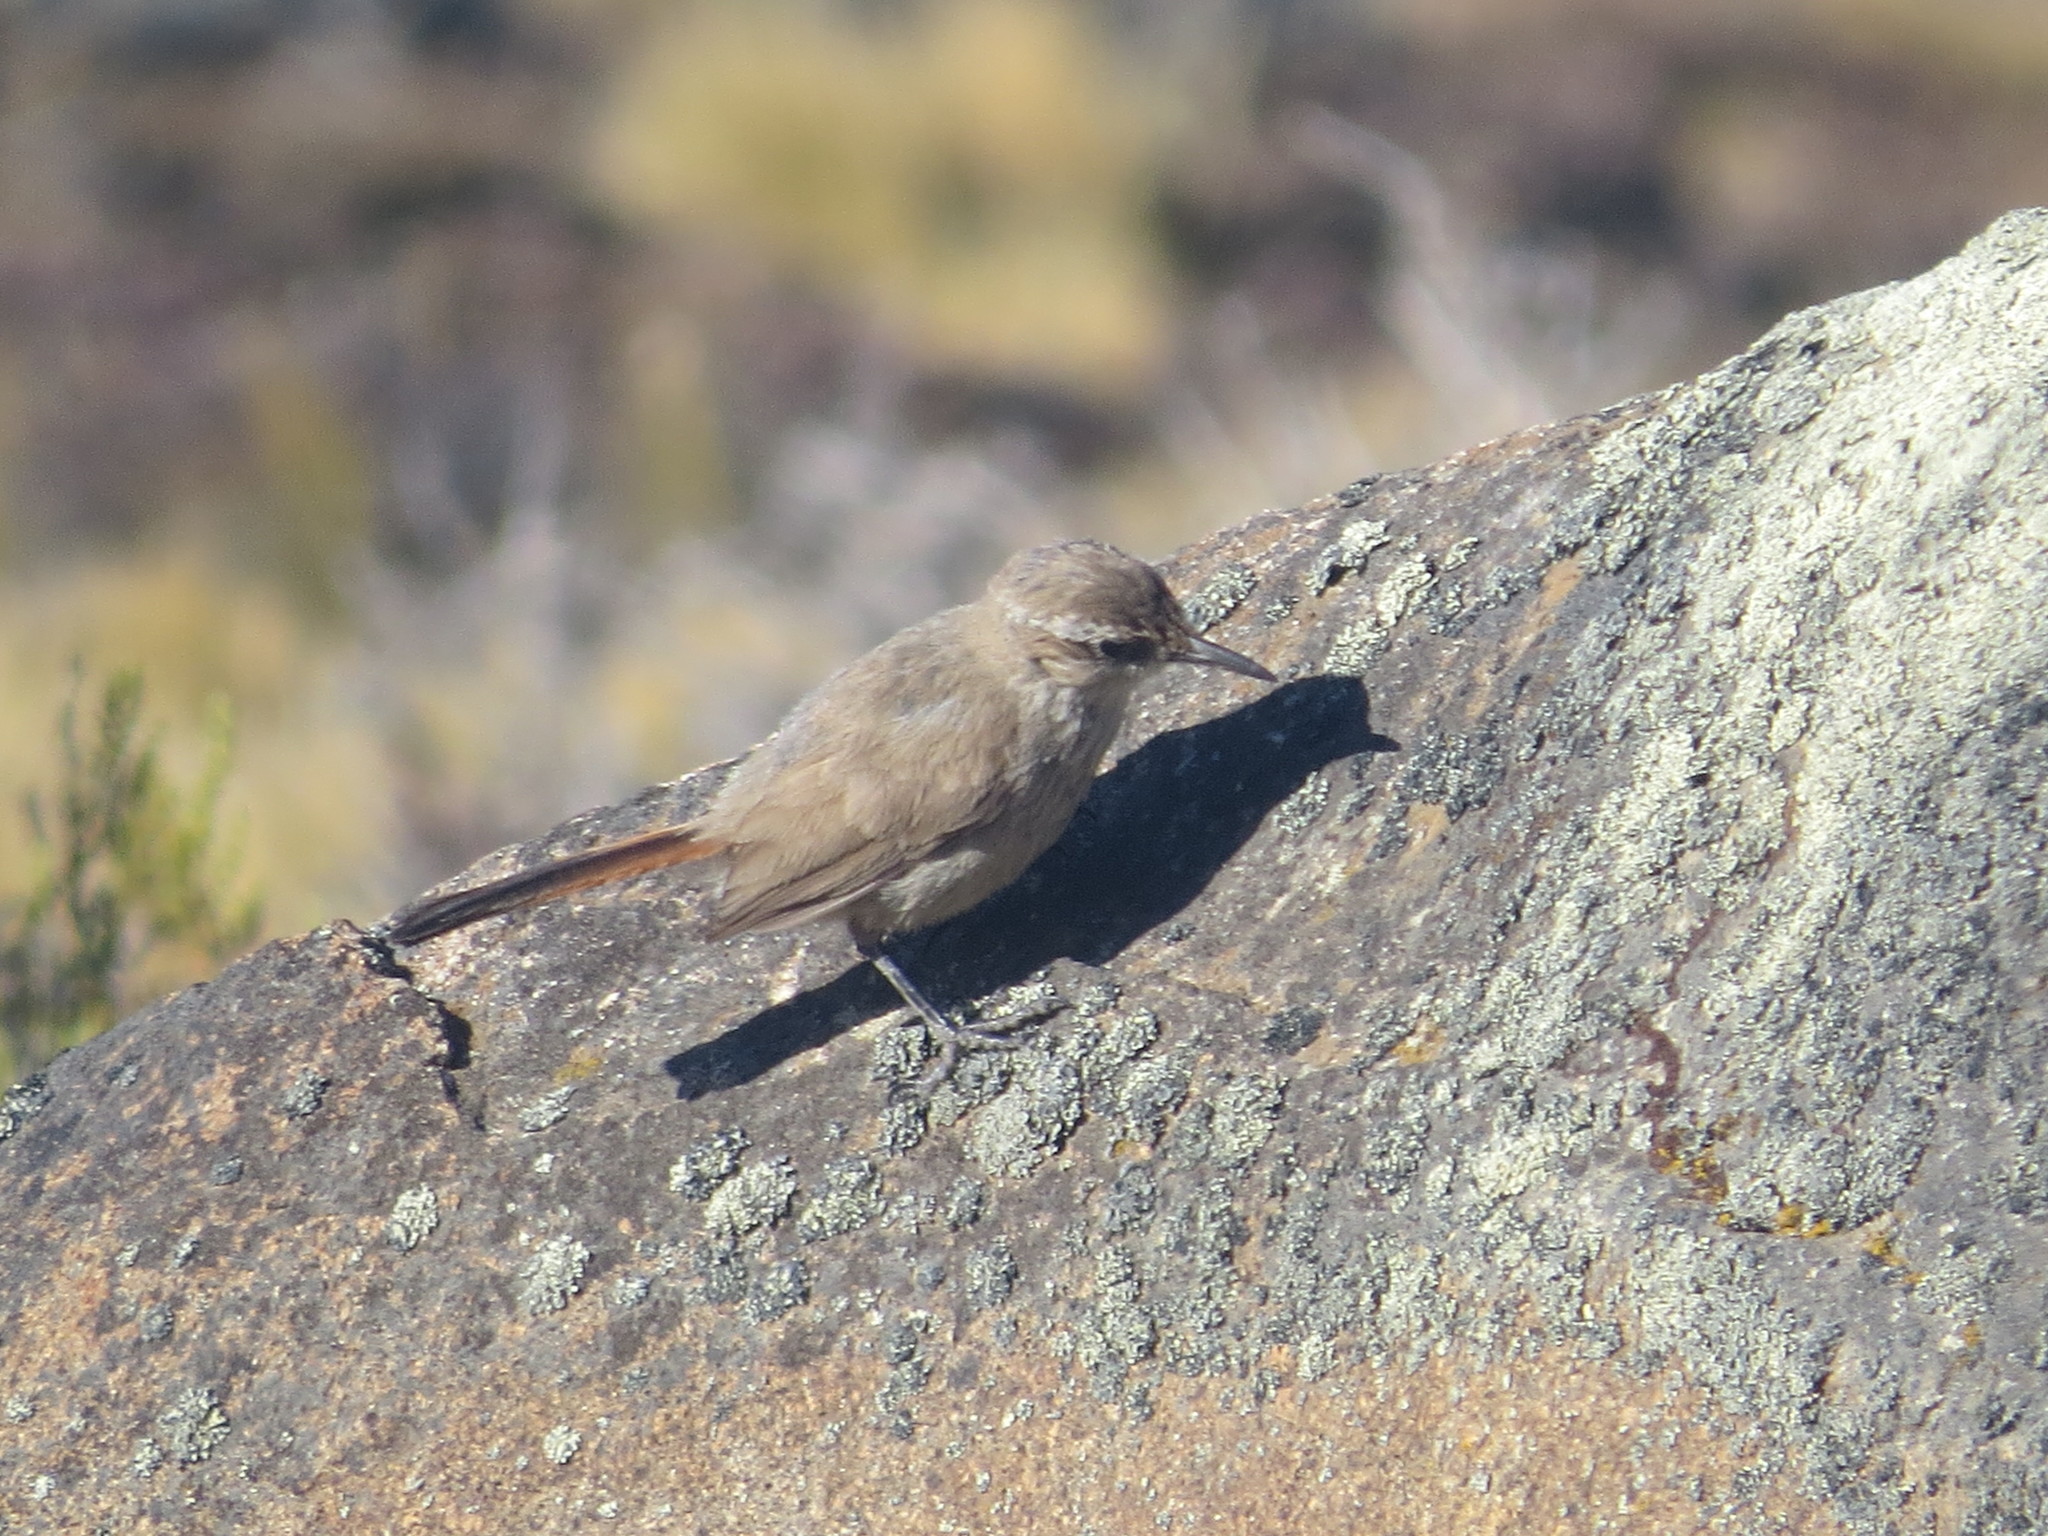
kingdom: Animalia
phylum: Chordata
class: Aves
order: Passeriformes
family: Furnariidae
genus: Eremobius
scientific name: Eremobius phoenicurus
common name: Band-tailed eremobius
